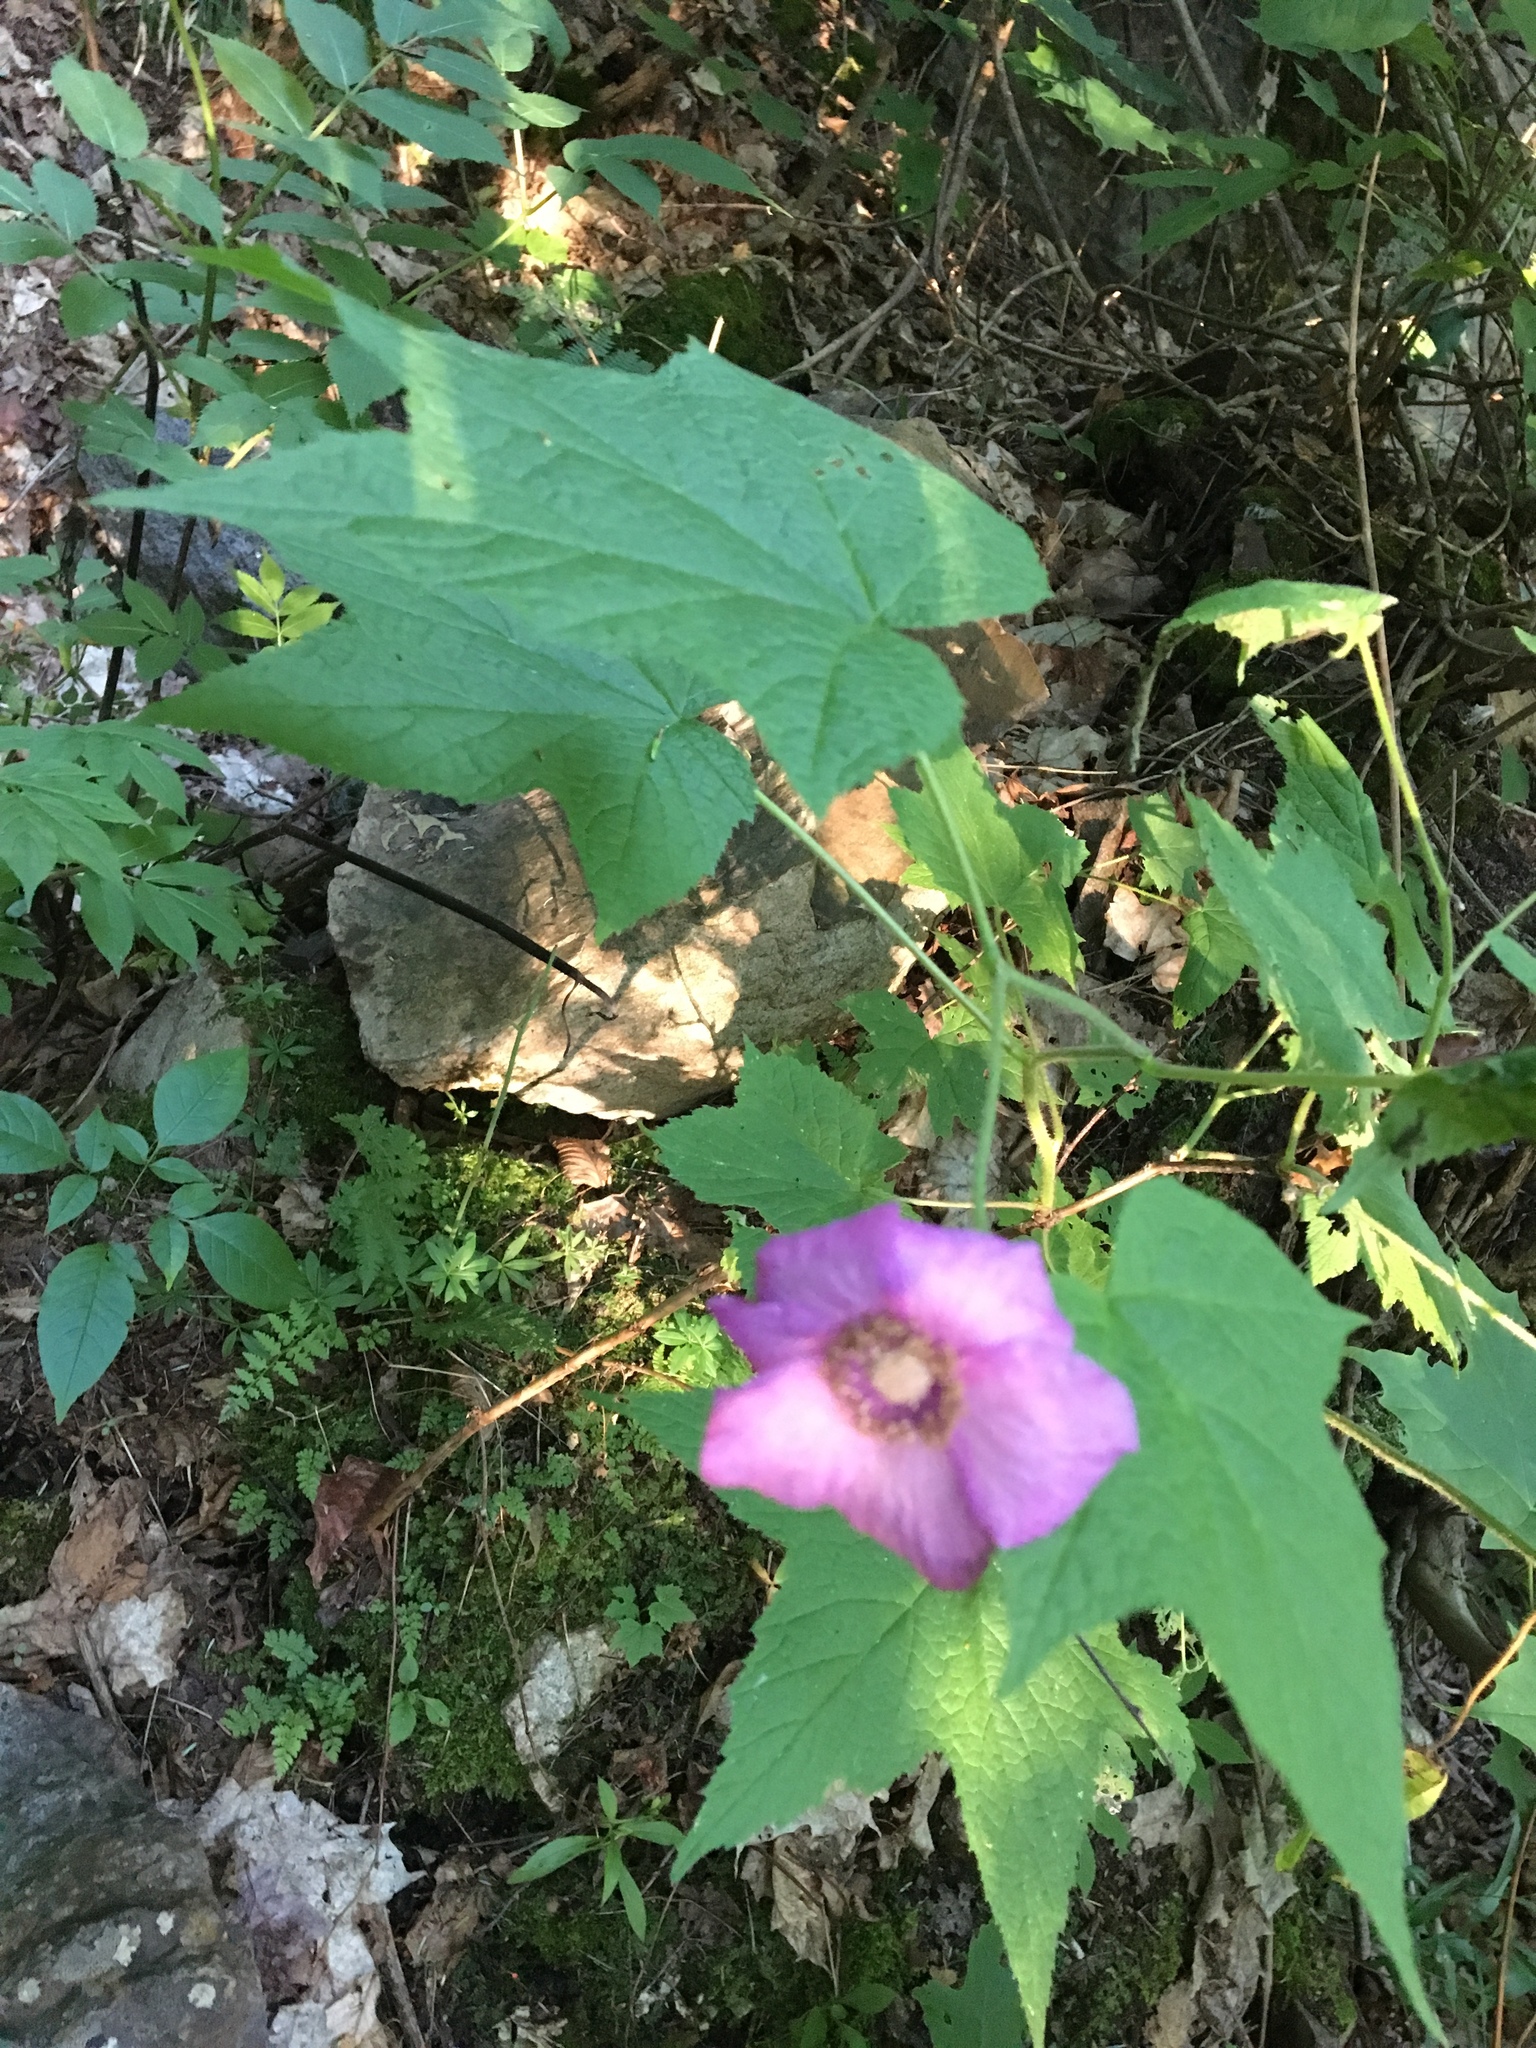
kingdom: Plantae
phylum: Tracheophyta
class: Magnoliopsida
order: Rosales
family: Rosaceae
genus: Rubus
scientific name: Rubus odoratus
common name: Purple-flowered raspberry
